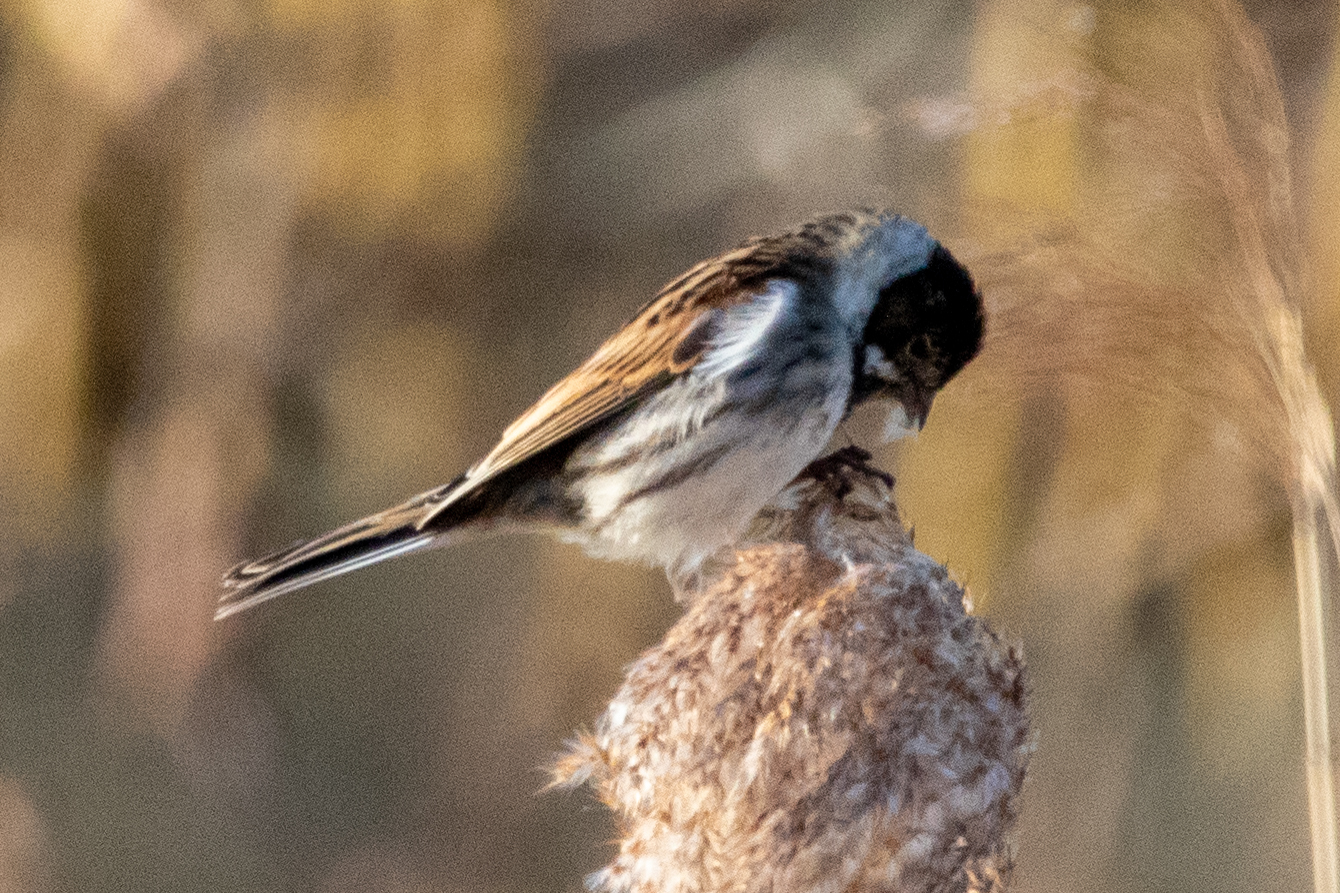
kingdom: Animalia
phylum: Chordata
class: Aves
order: Passeriformes
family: Emberizidae
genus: Emberiza
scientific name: Emberiza schoeniclus
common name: Reed bunting
